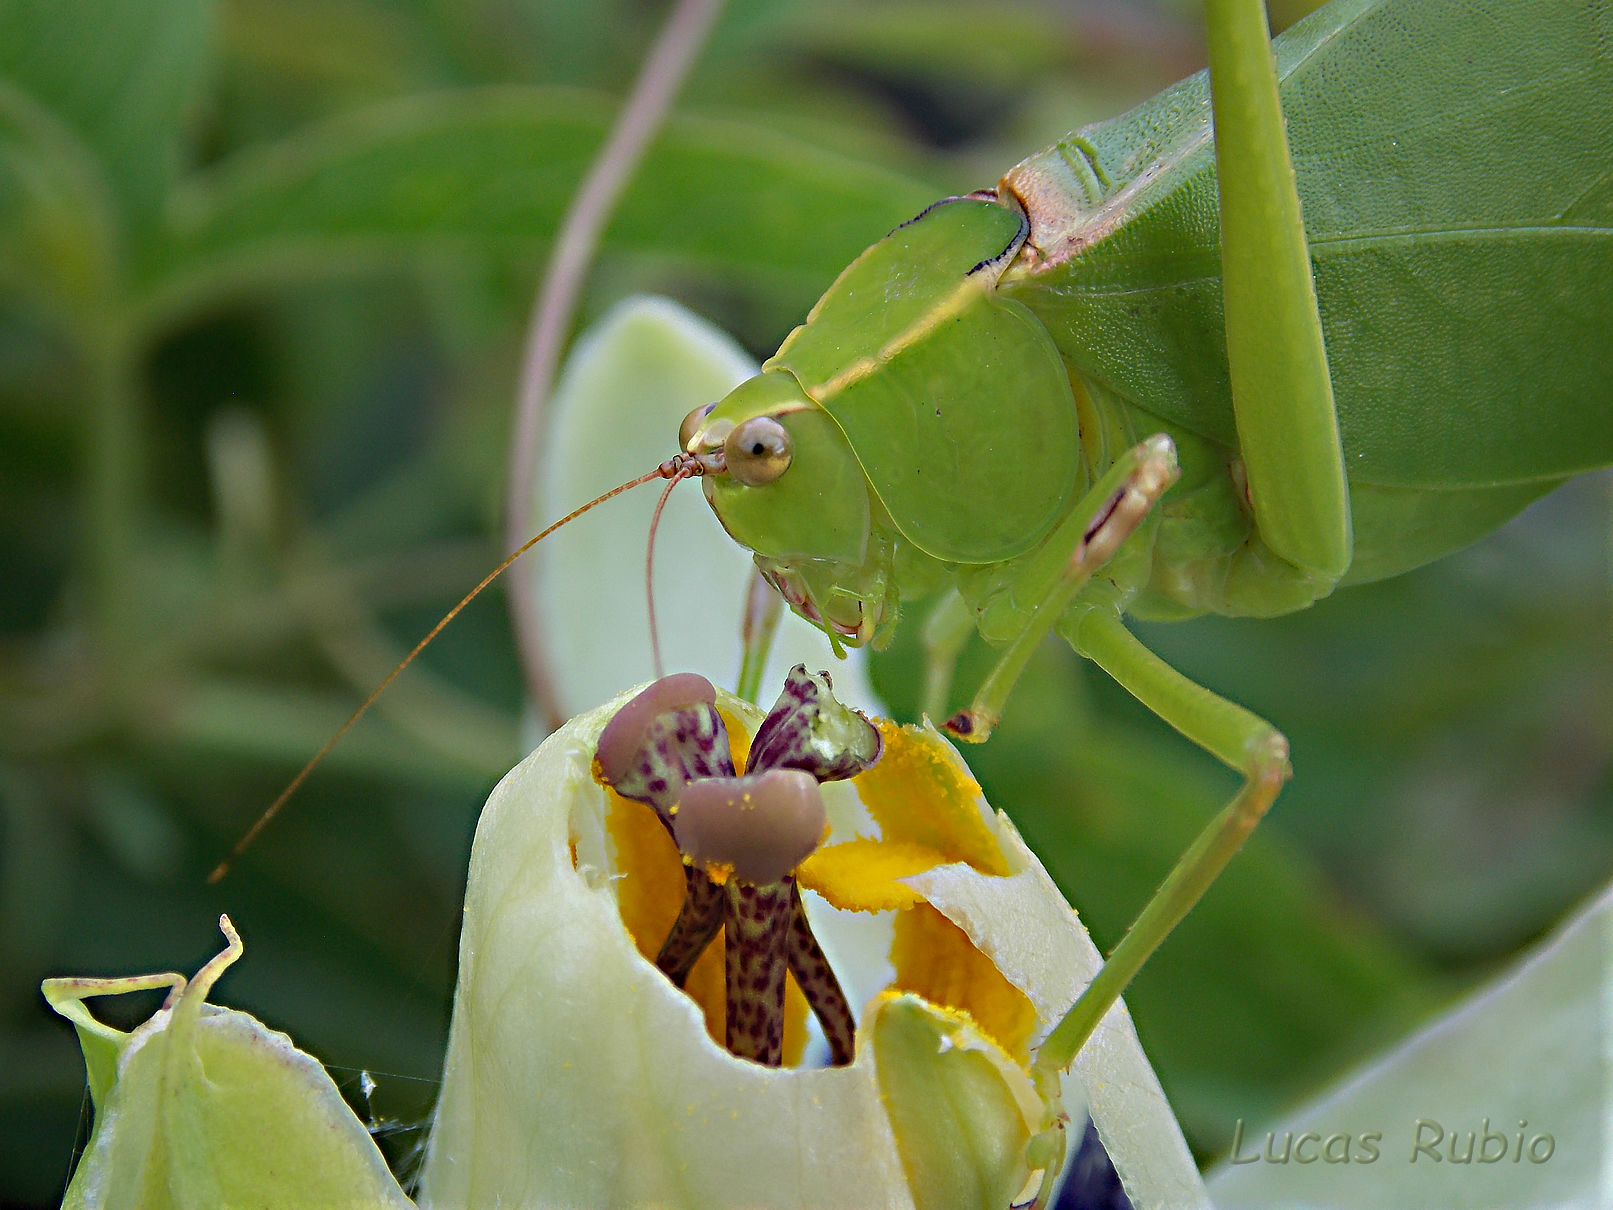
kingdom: Animalia
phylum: Arthropoda
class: Insecta
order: Orthoptera
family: Tettigoniidae
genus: Stilpnochlora
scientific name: Stilpnochlora nanna
